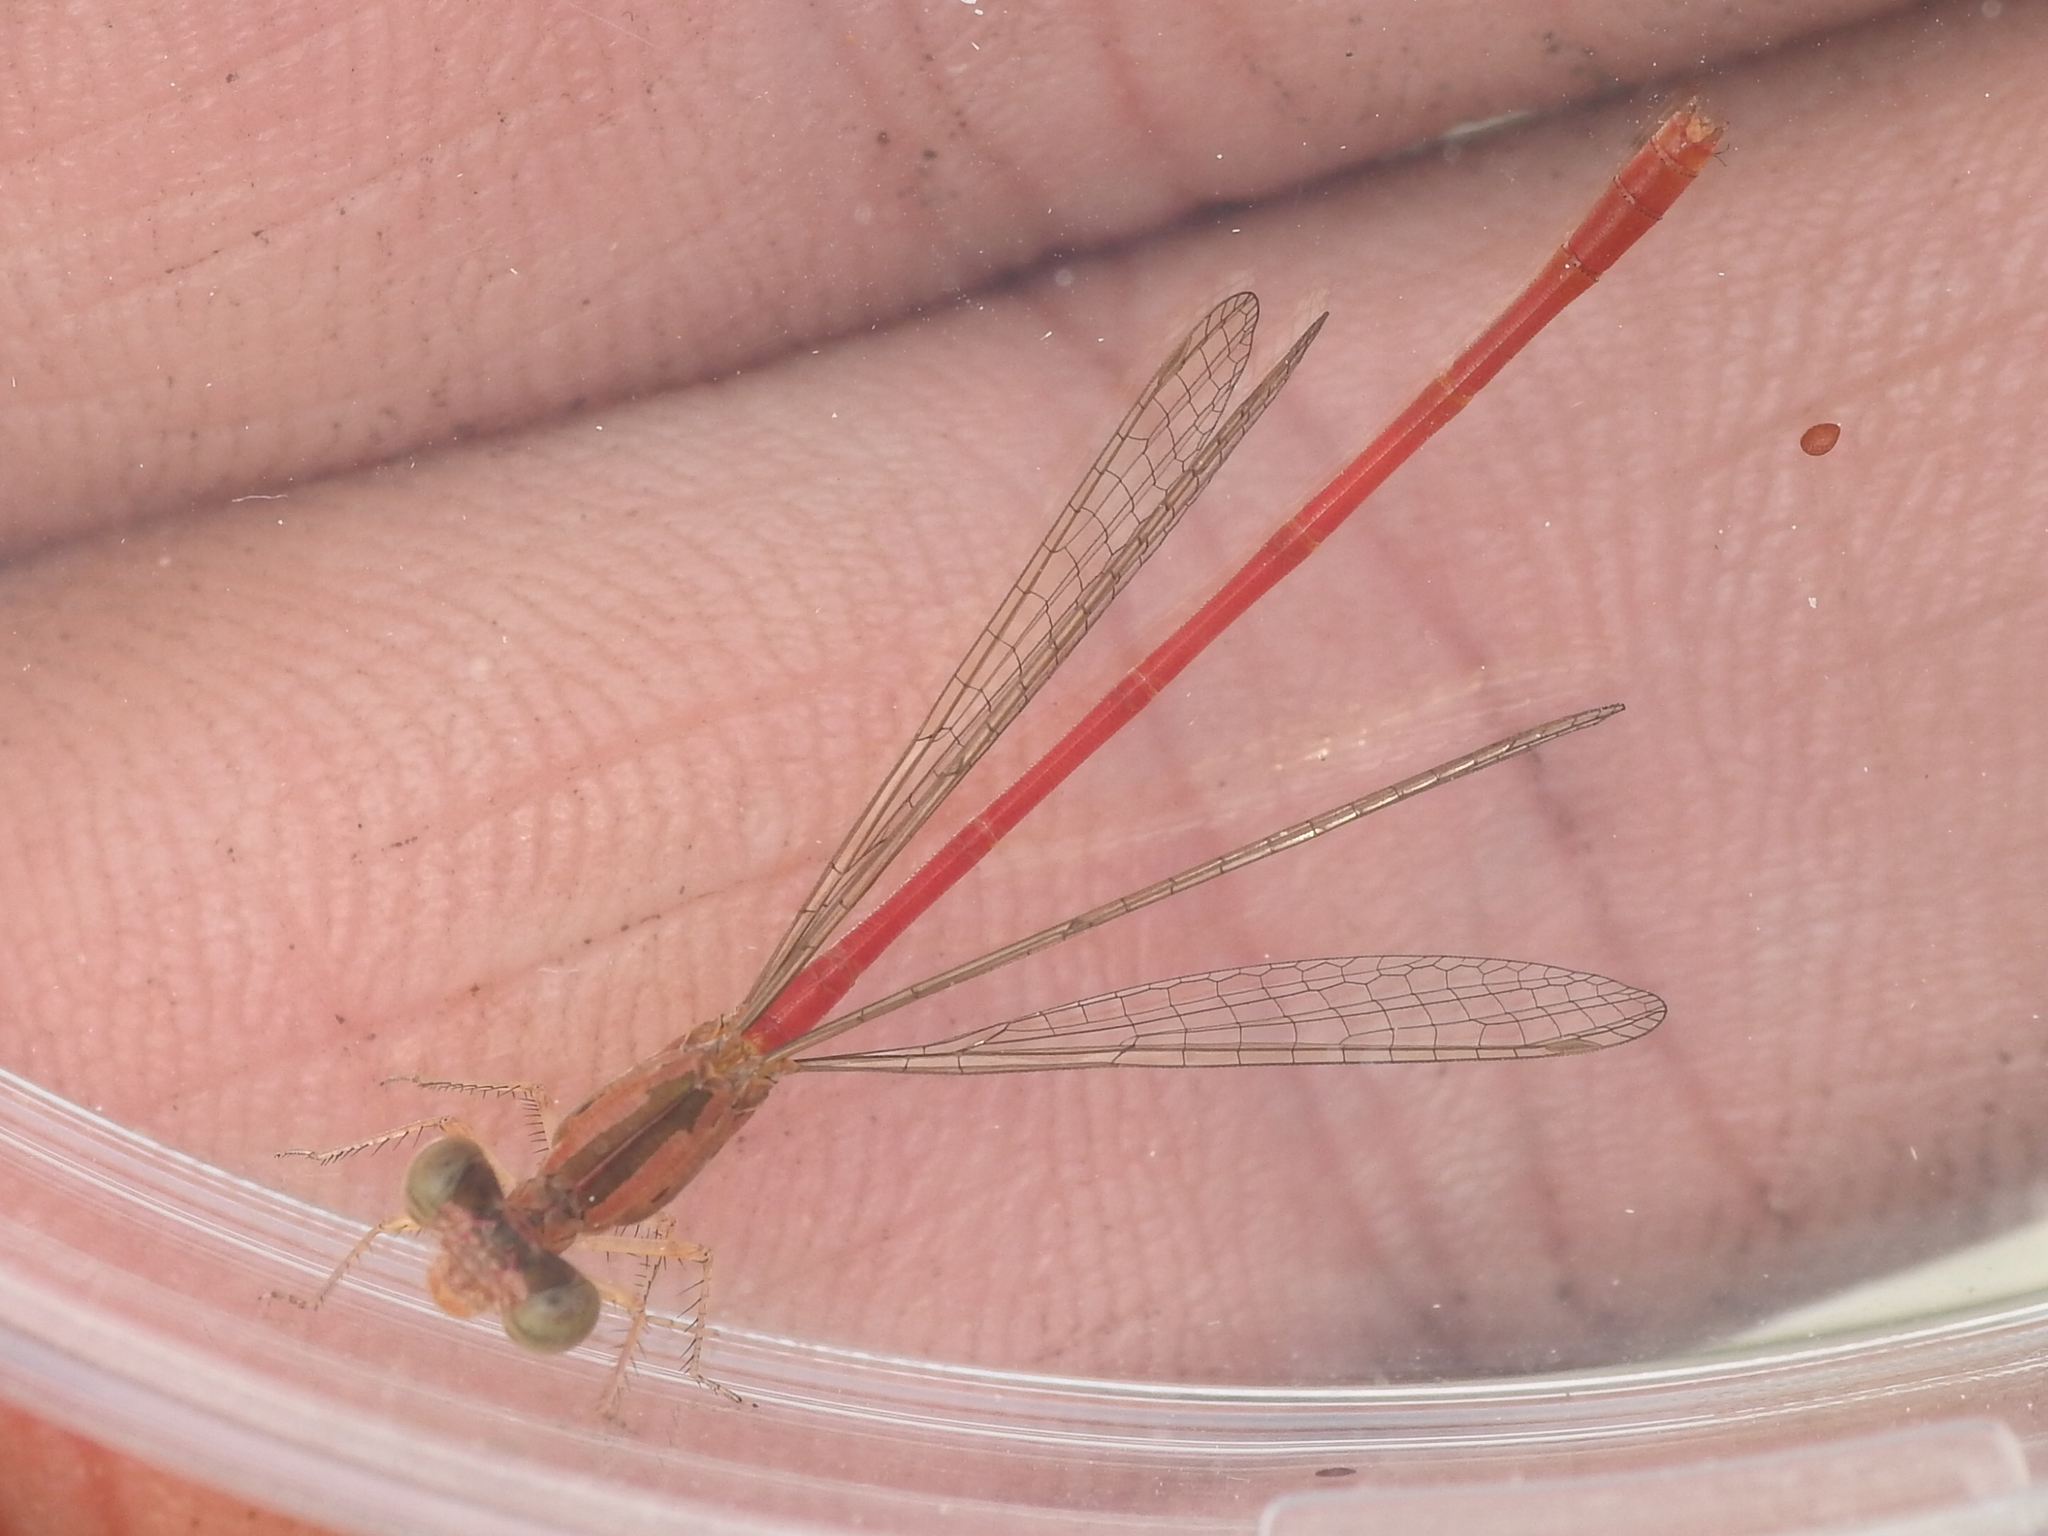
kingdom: Animalia
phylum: Arthropoda
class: Insecta
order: Odonata
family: Coenagrionidae
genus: Telebasis
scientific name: Telebasis salva
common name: Desert firetail
